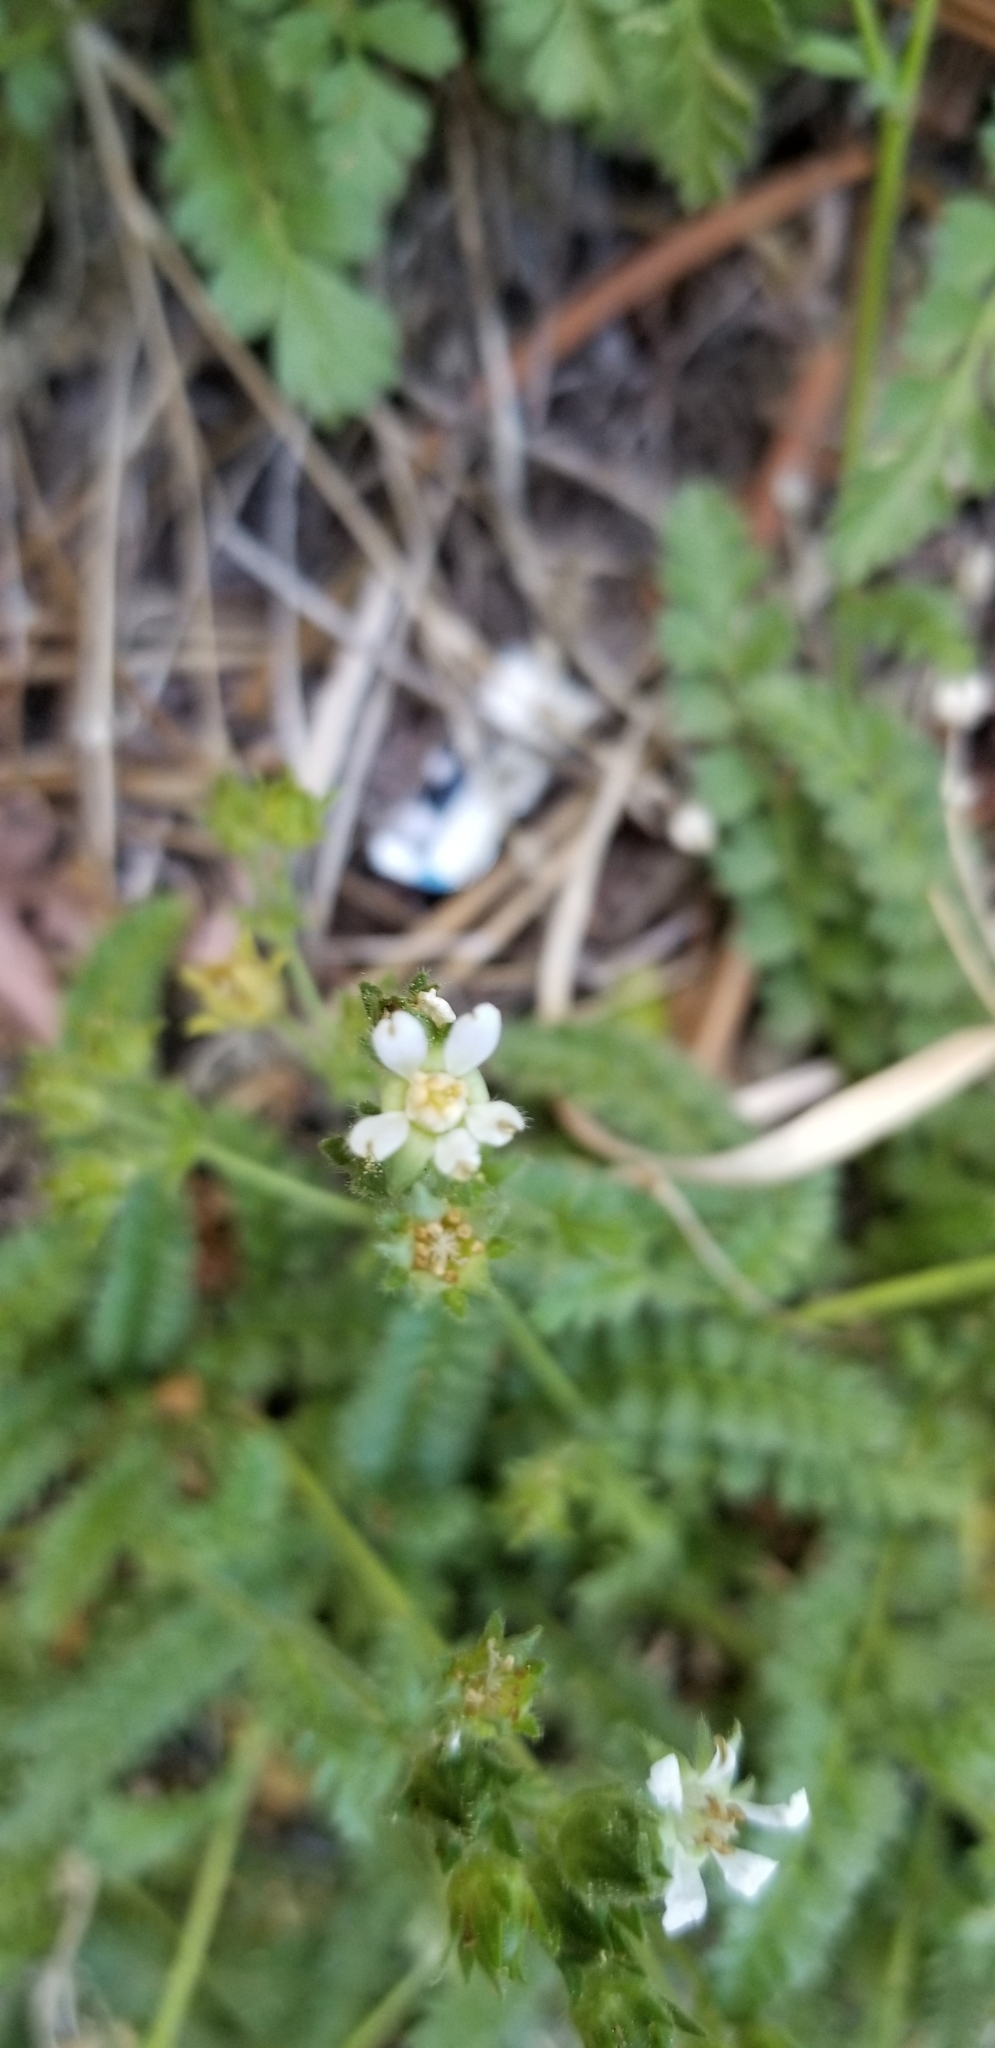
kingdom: Plantae
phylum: Tracheophyta
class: Magnoliopsida
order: Rosales
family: Rosaceae
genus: Potentilla
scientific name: Potentilla clevelandii
